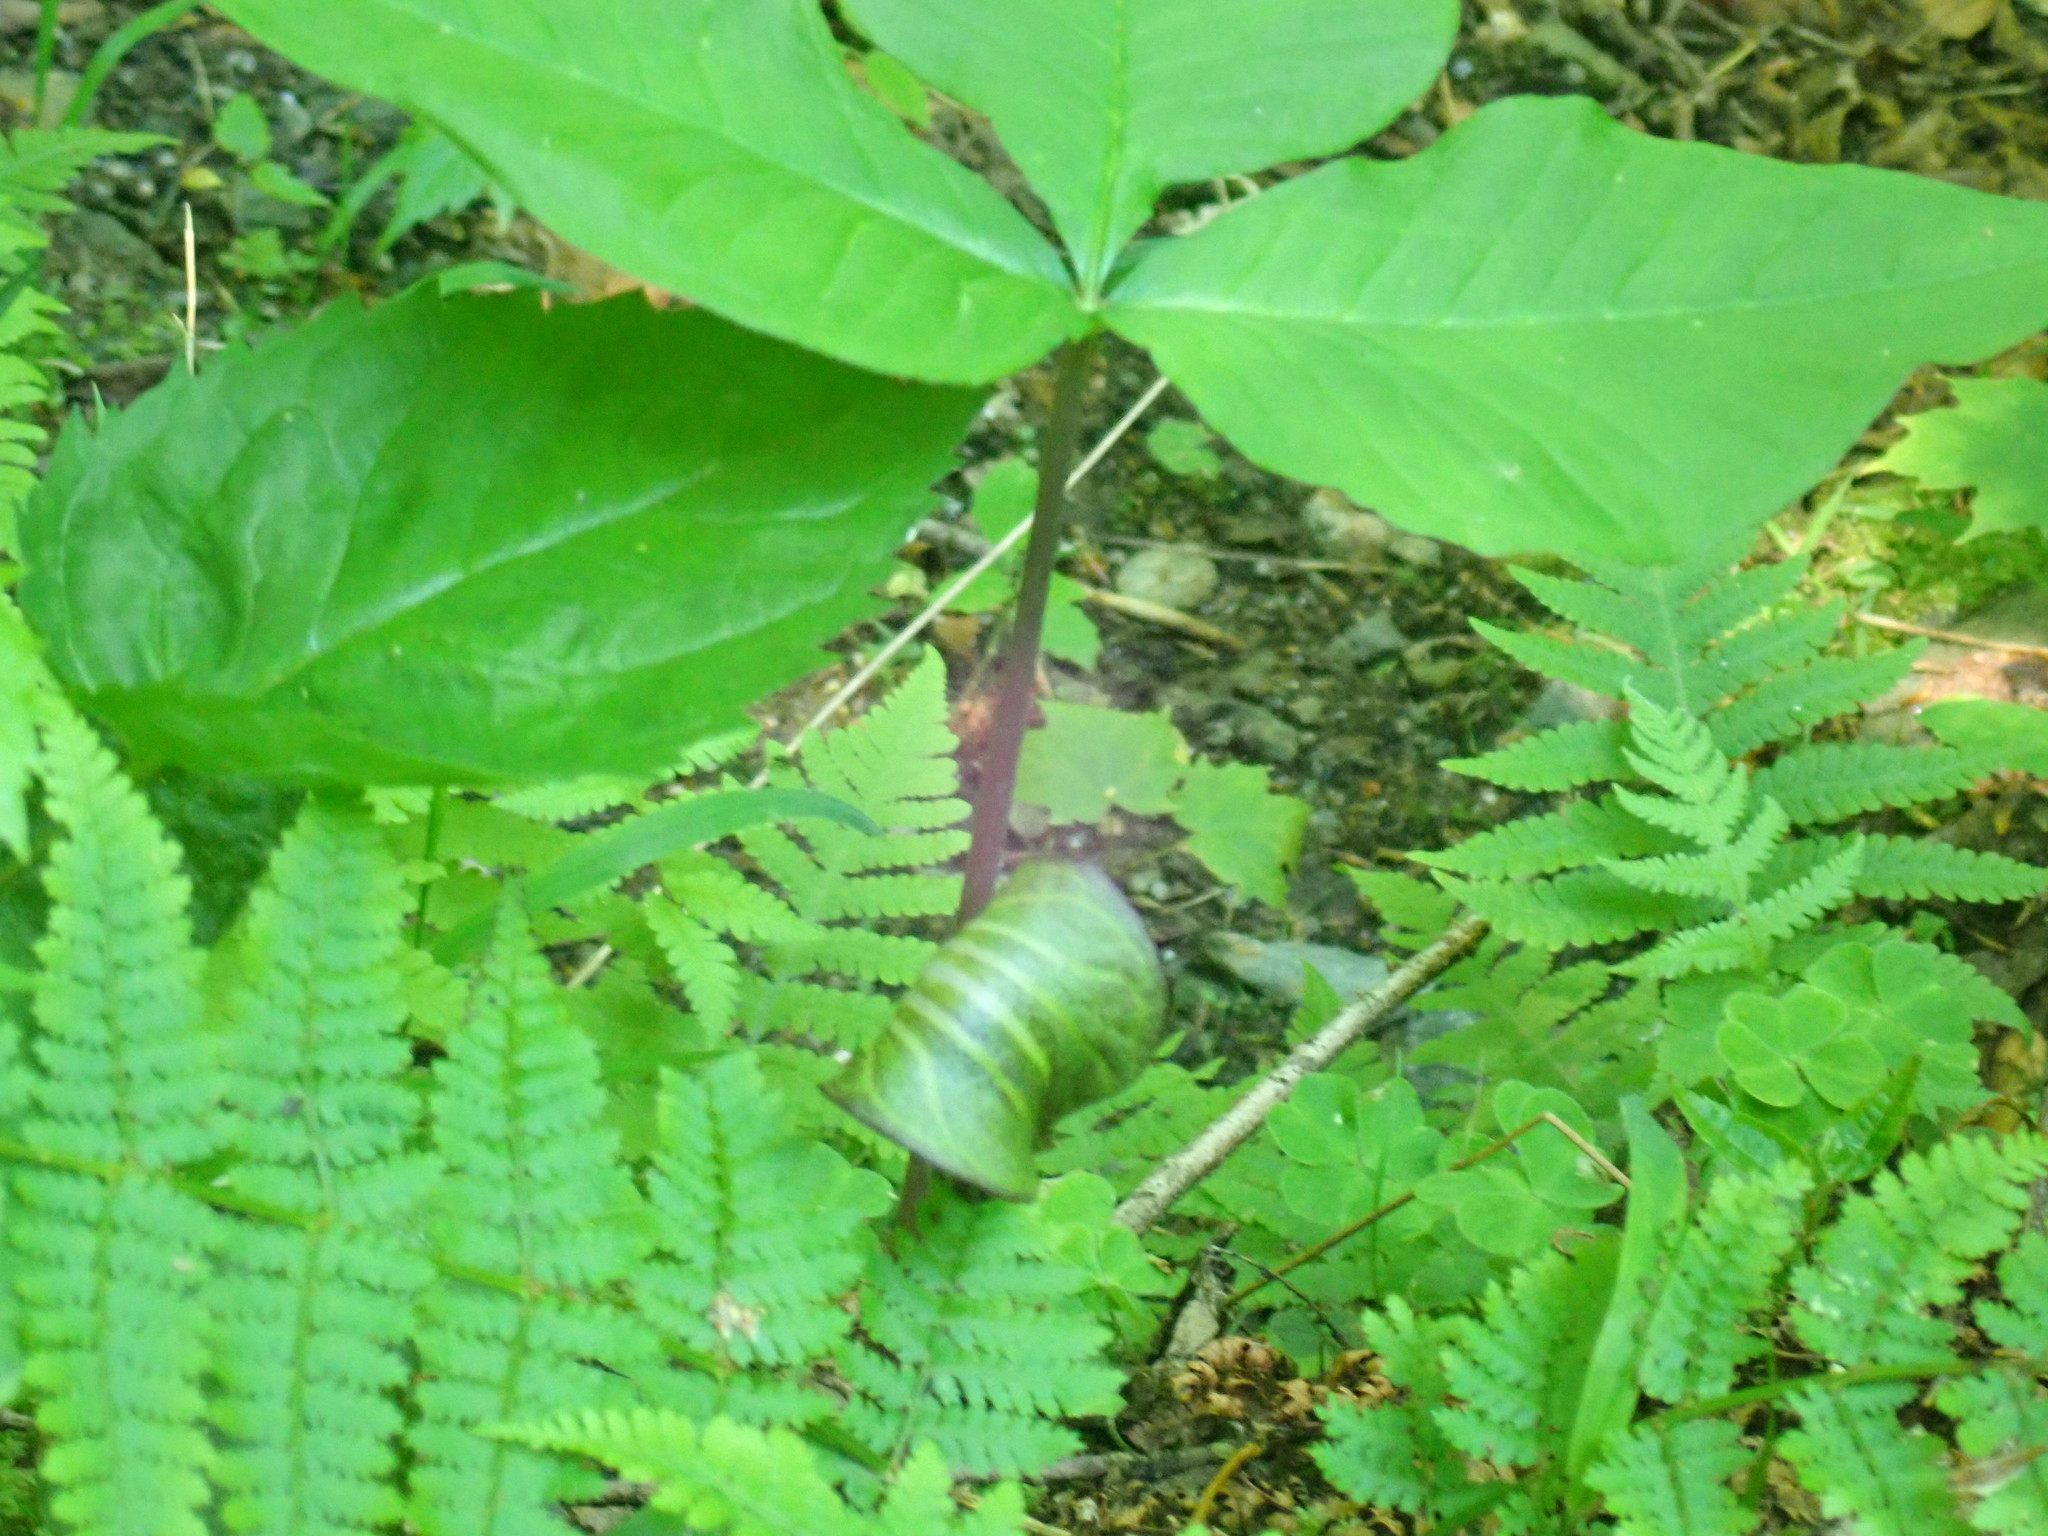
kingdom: Plantae
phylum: Tracheophyta
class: Liliopsida
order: Alismatales
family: Araceae
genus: Arisaema
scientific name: Arisaema triphyllum
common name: Jack-in-the-pulpit
